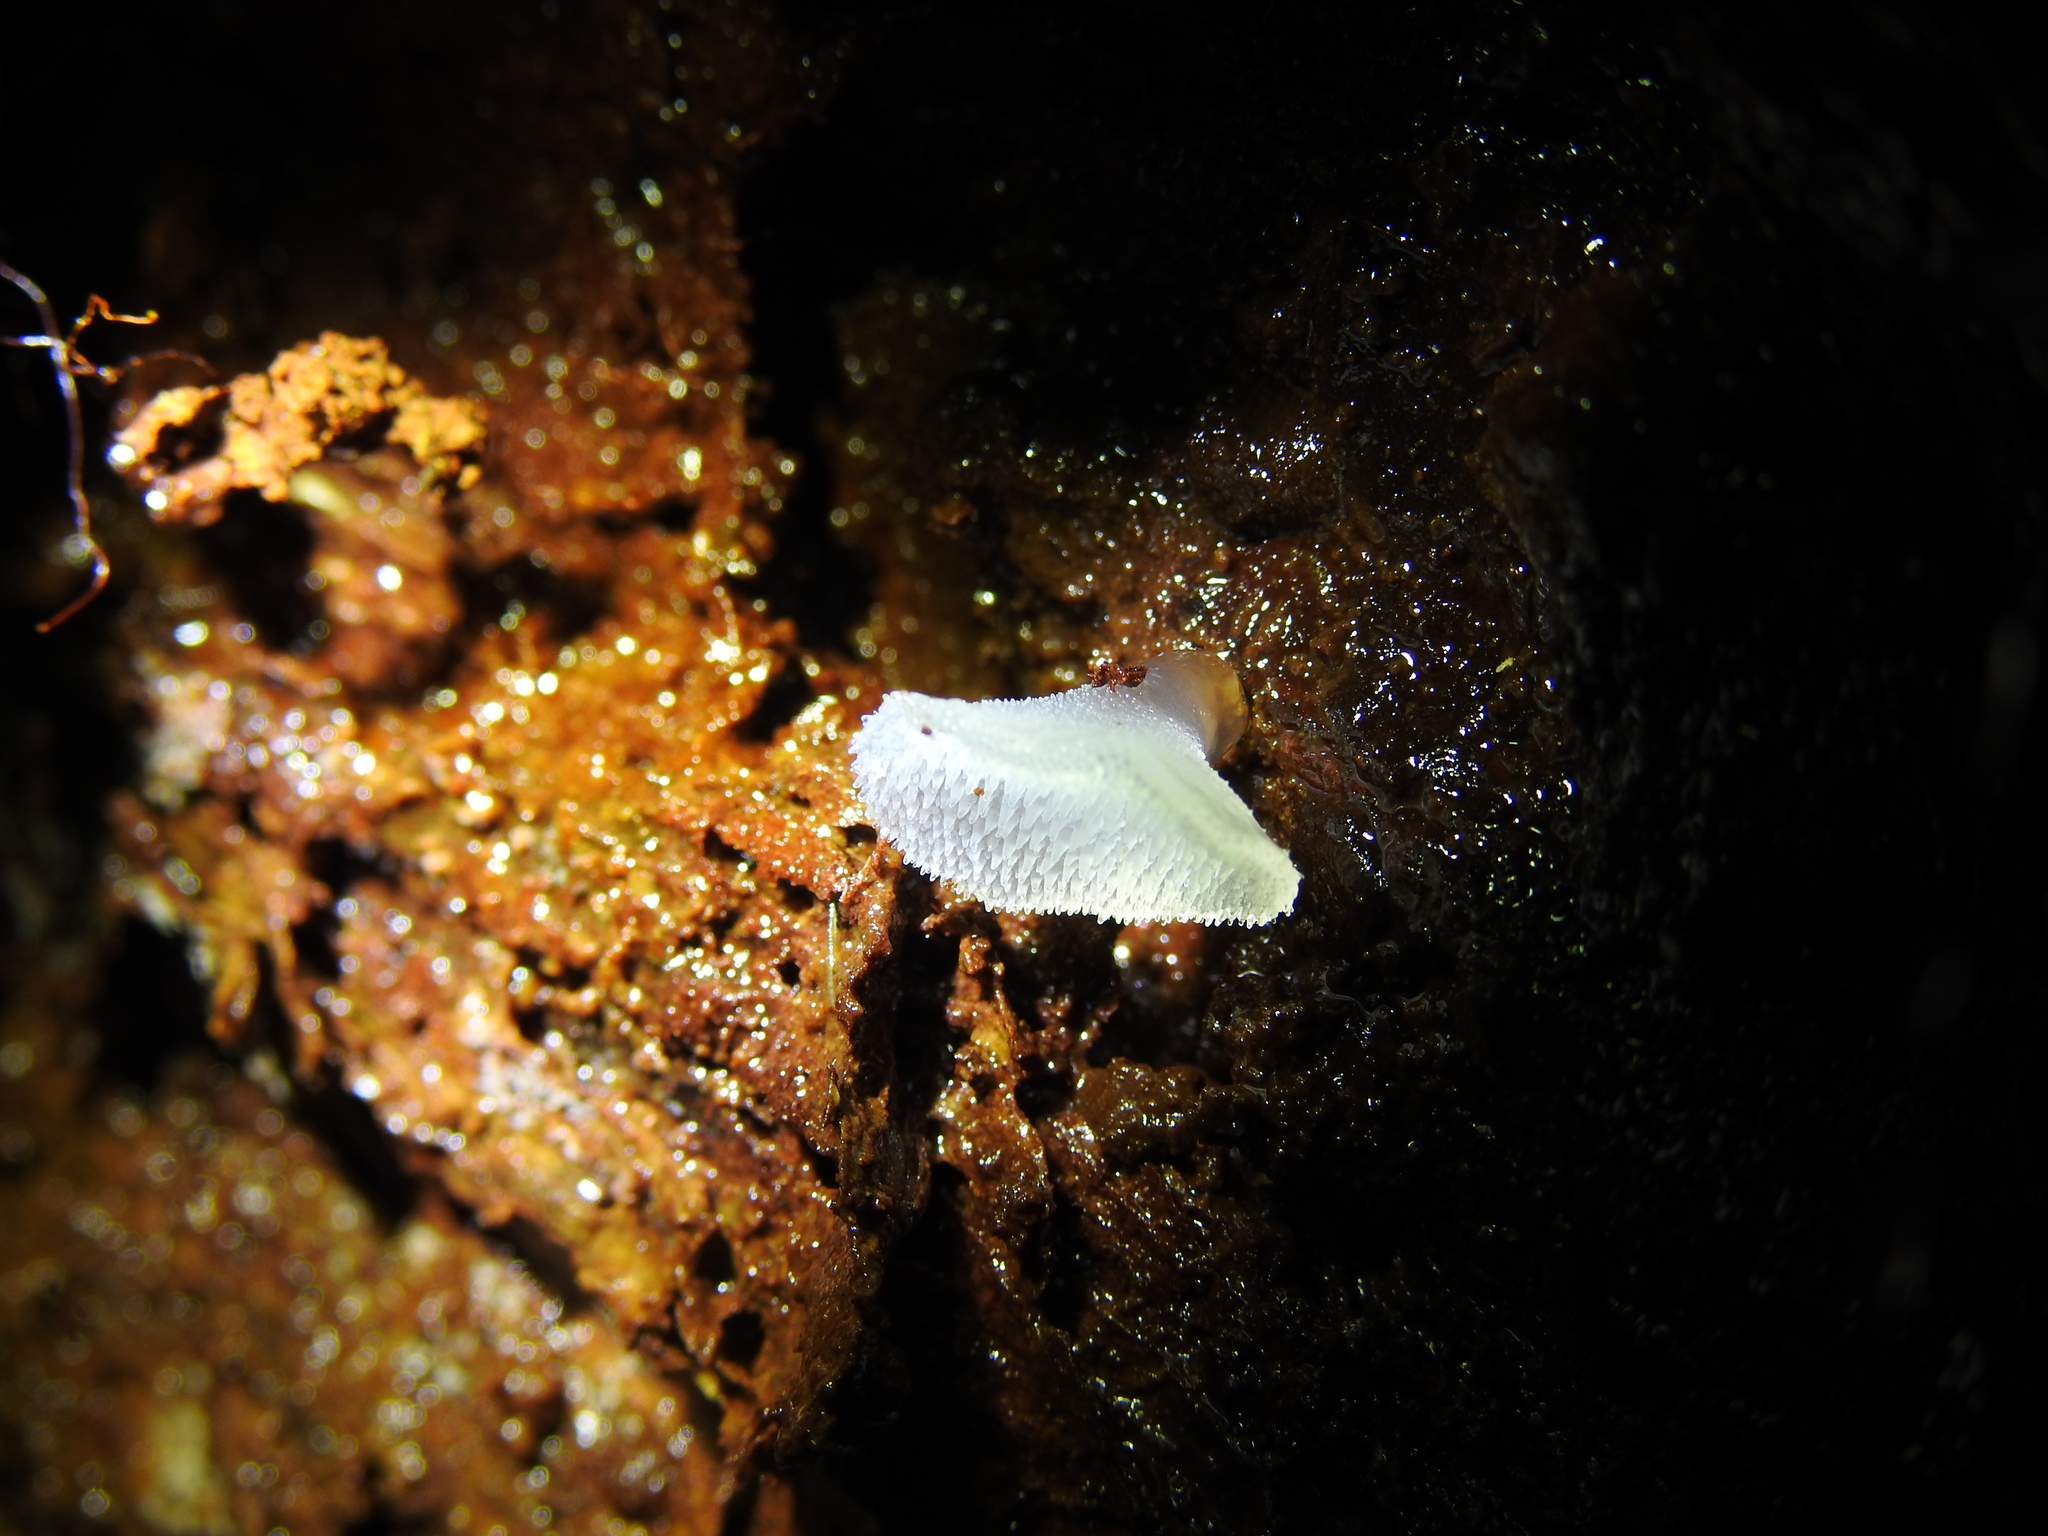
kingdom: Fungi
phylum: Basidiomycota
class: Agaricomycetes
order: Auriculariales
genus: Pseudohydnum
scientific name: Pseudohydnum gelatinosum
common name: Jelly tongue
